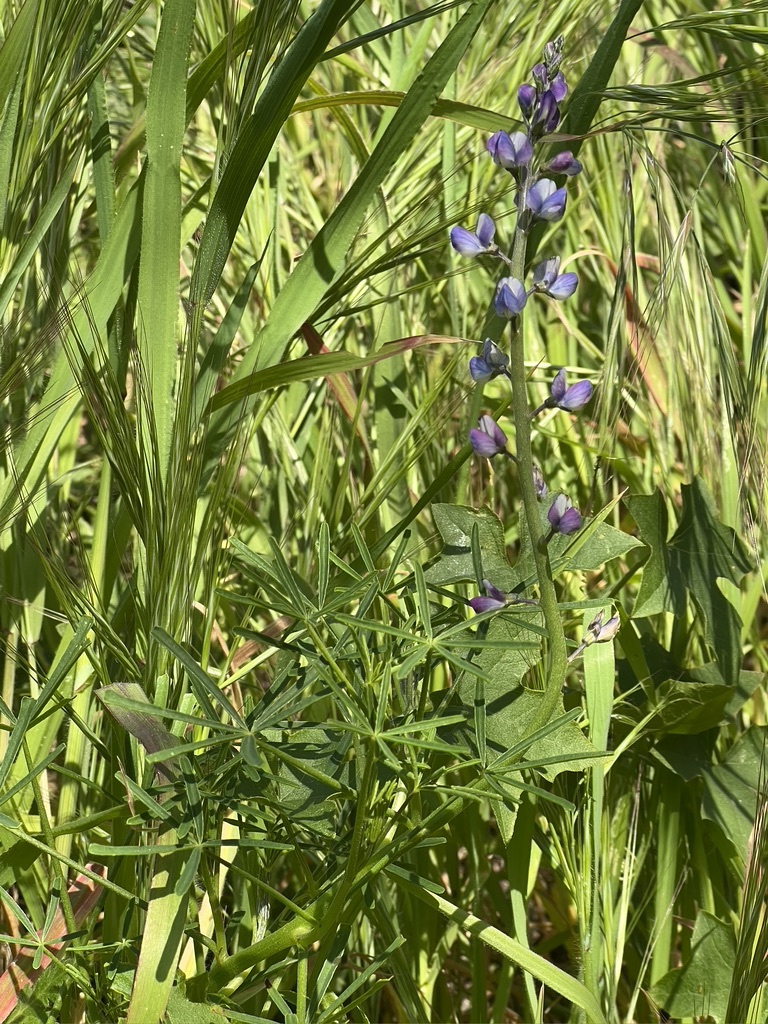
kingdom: Plantae
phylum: Tracheophyta
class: Magnoliopsida
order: Fabales
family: Fabaceae
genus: Lupinus
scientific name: Lupinus truncatus
